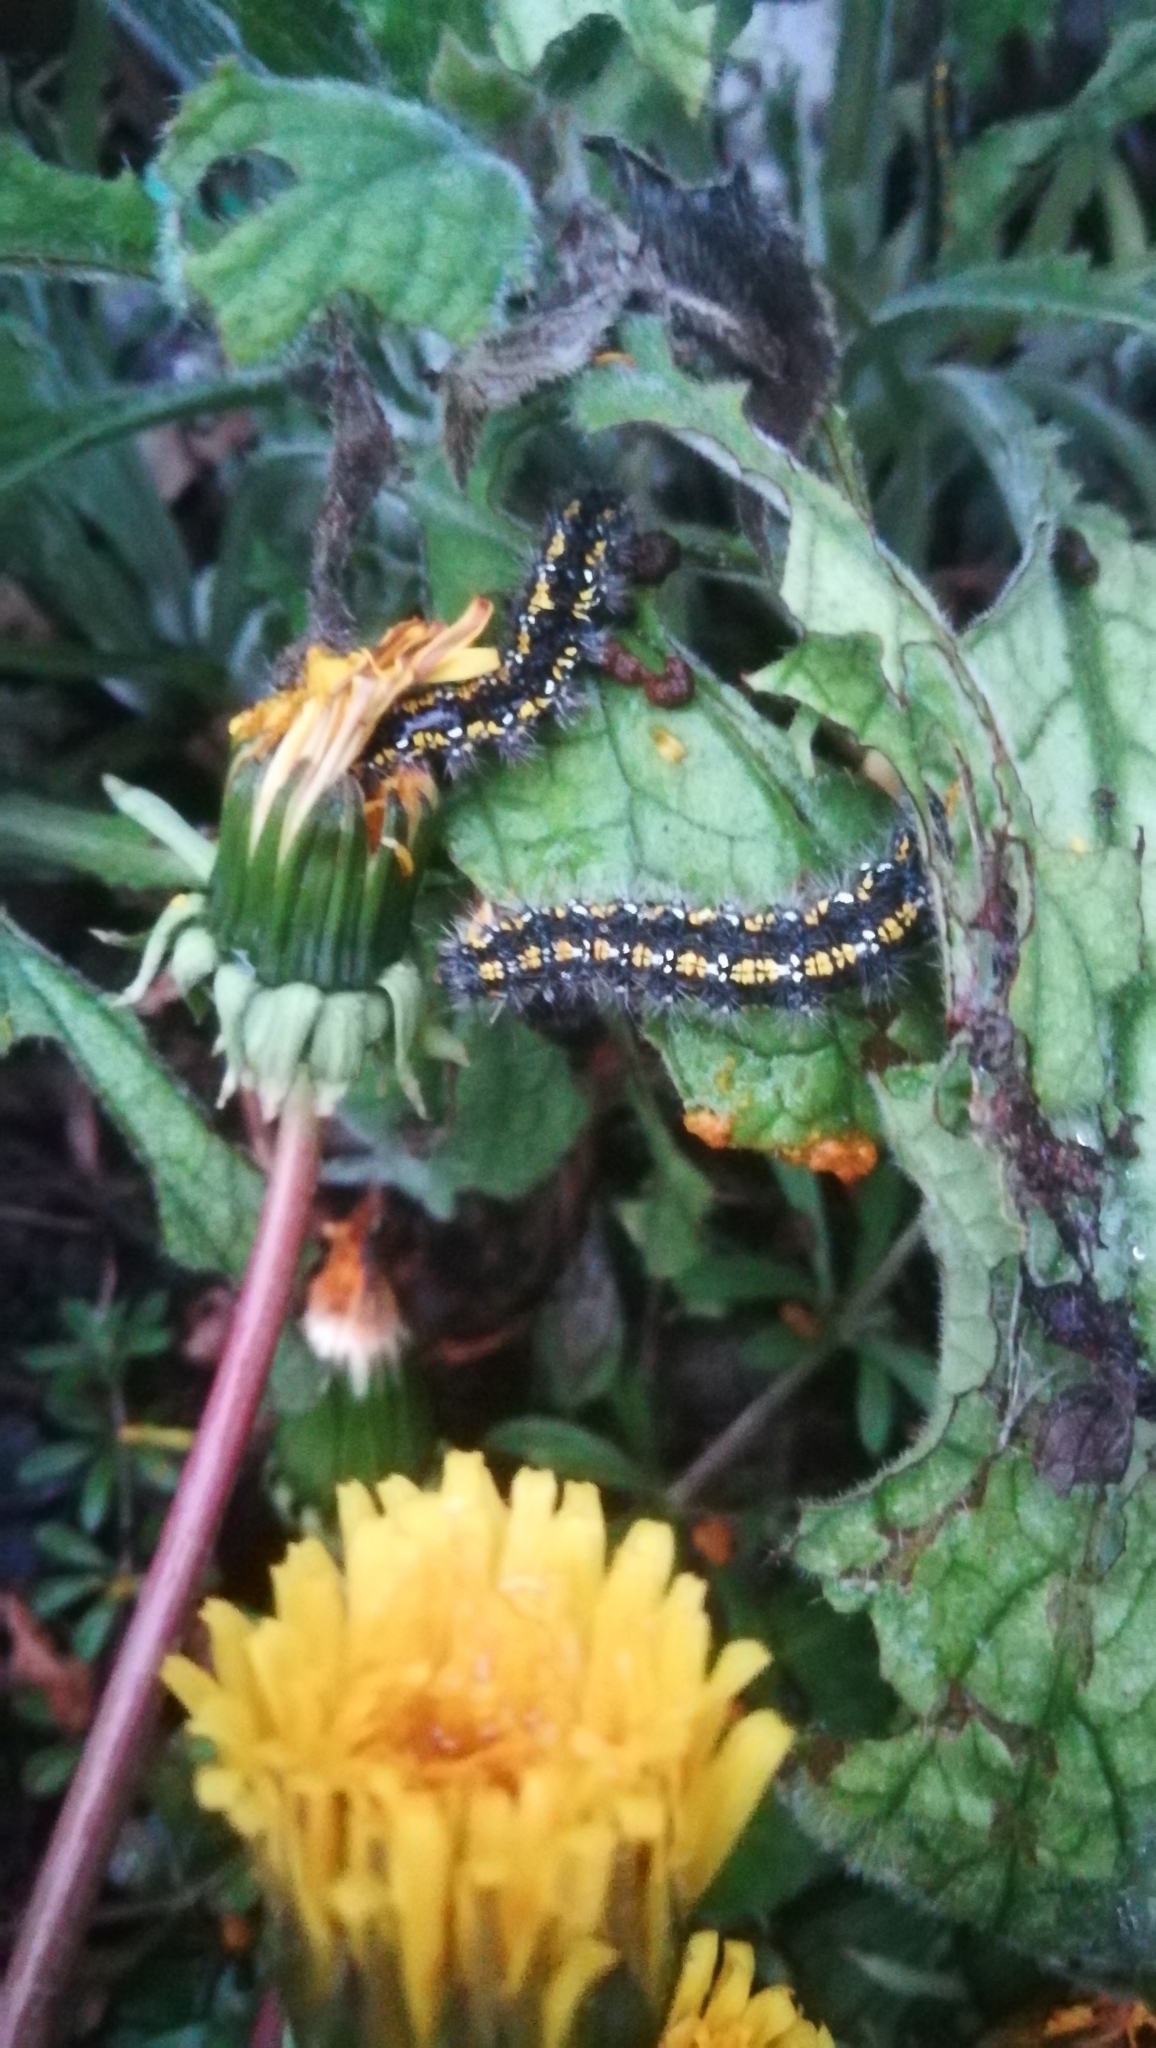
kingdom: Animalia
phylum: Arthropoda
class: Insecta
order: Lepidoptera
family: Erebidae
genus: Callimorpha
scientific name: Callimorpha dominula
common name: Scarlet tiger
